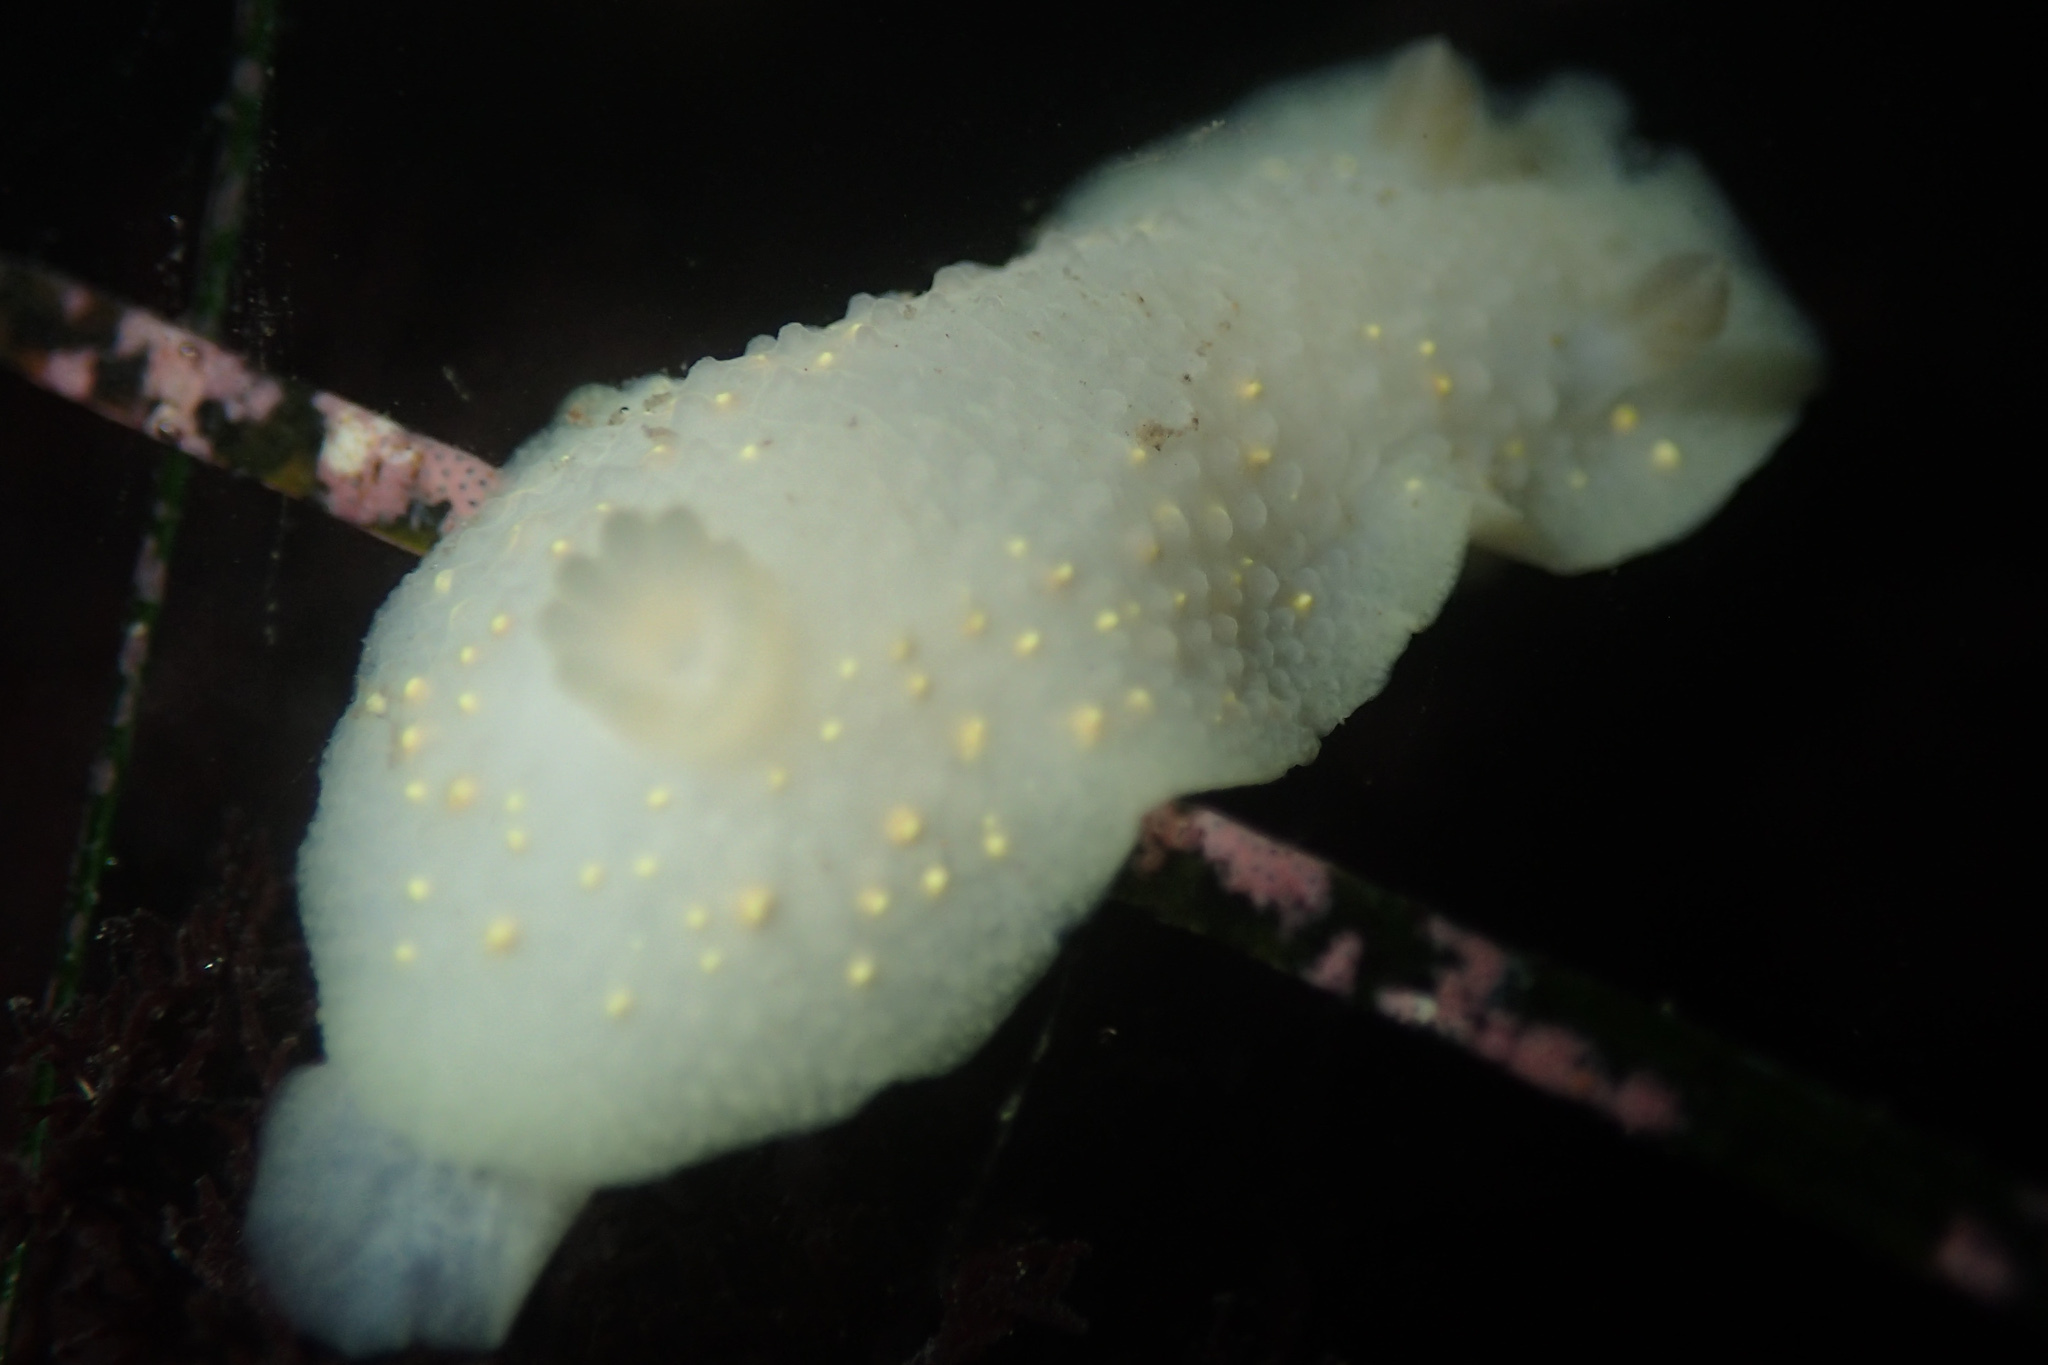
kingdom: Animalia
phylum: Mollusca
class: Gastropoda
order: Nudibranchia
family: Cadlinidae
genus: Cadlina
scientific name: Cadlina modesta
